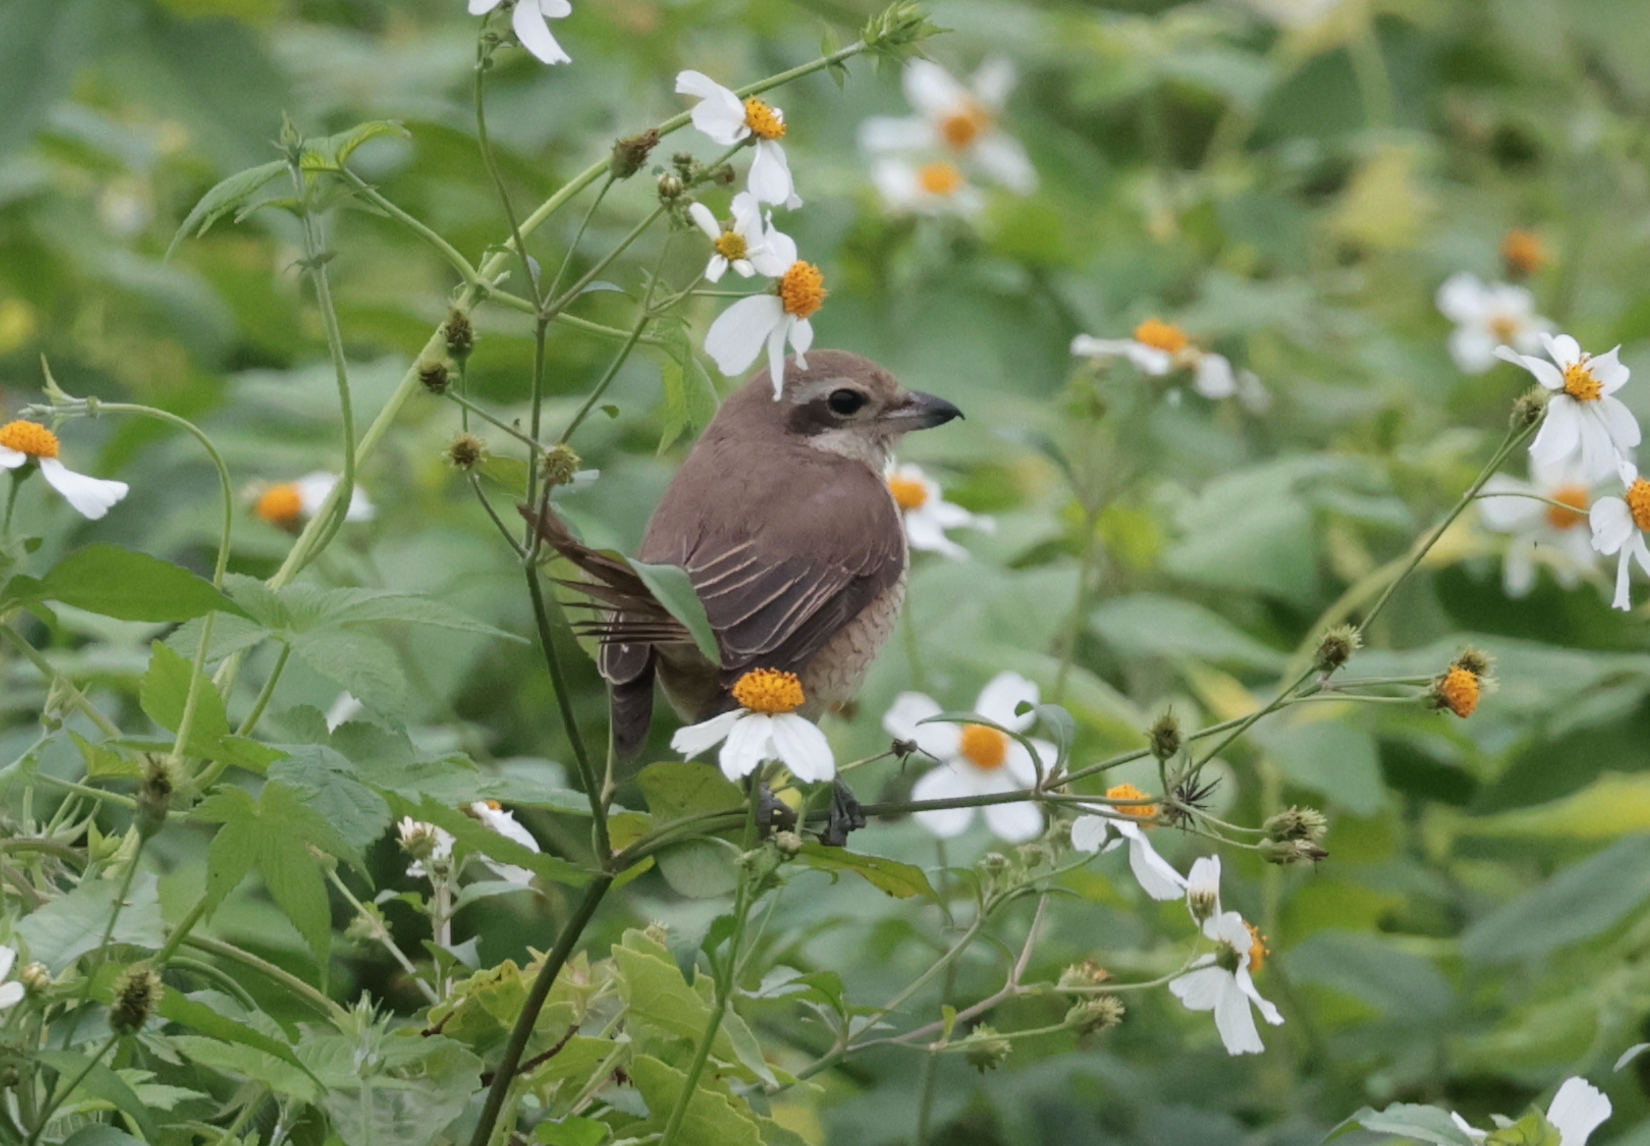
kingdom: Animalia
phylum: Chordata
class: Aves
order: Passeriformes
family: Laniidae
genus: Lanius
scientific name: Lanius cristatus
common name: Brown shrike
